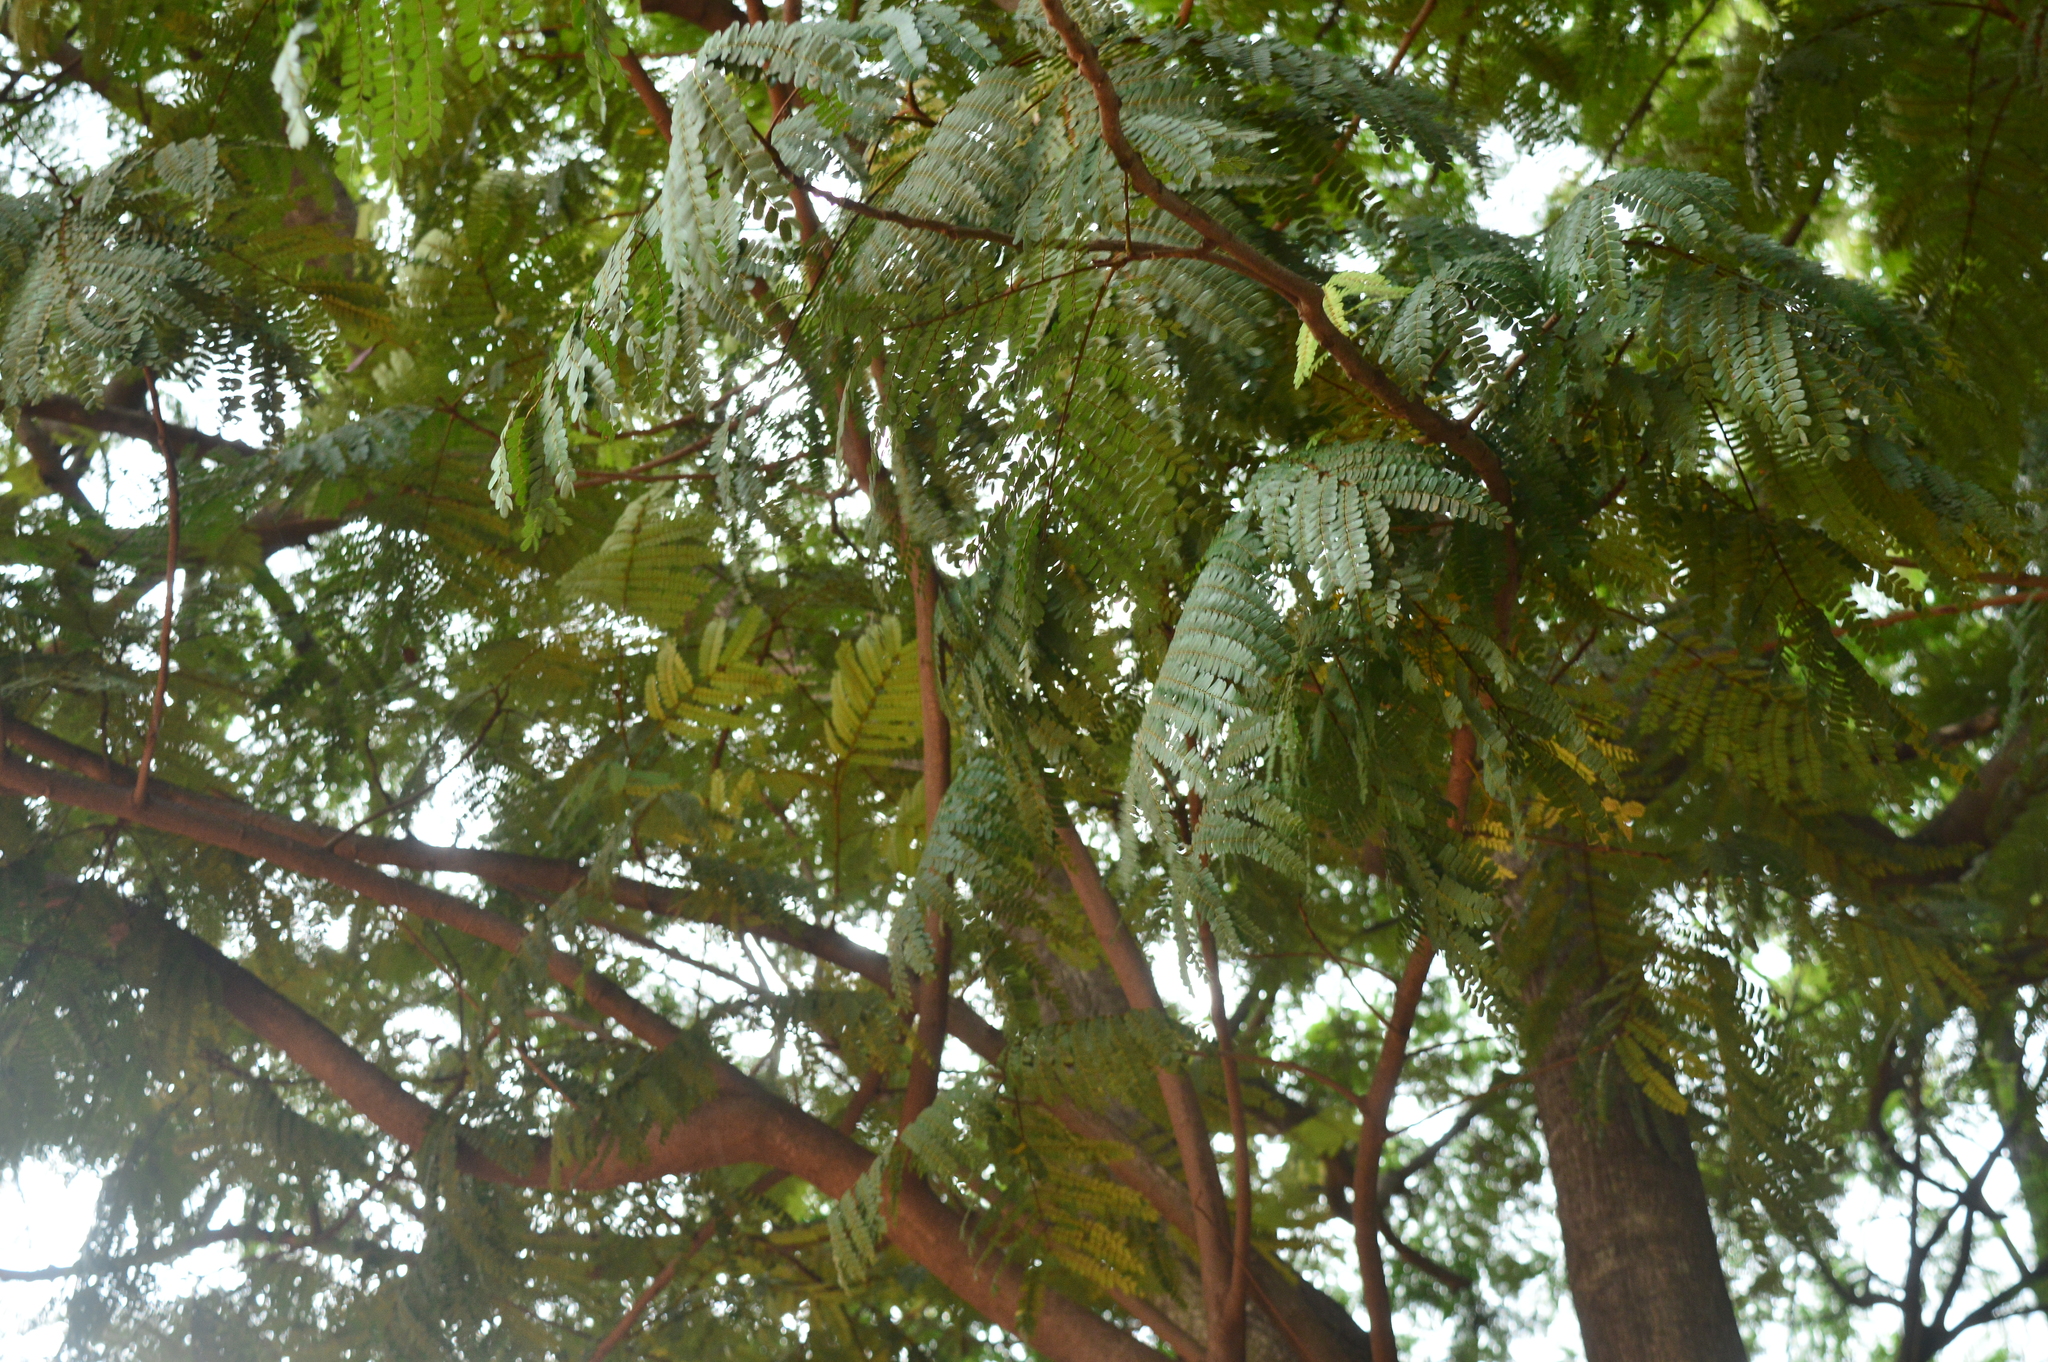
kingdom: Plantae
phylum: Tracheophyta
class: Magnoliopsida
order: Fabales
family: Fabaceae
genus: Peltophorum
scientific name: Peltophorum pterocarpum
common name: Yellow flame
